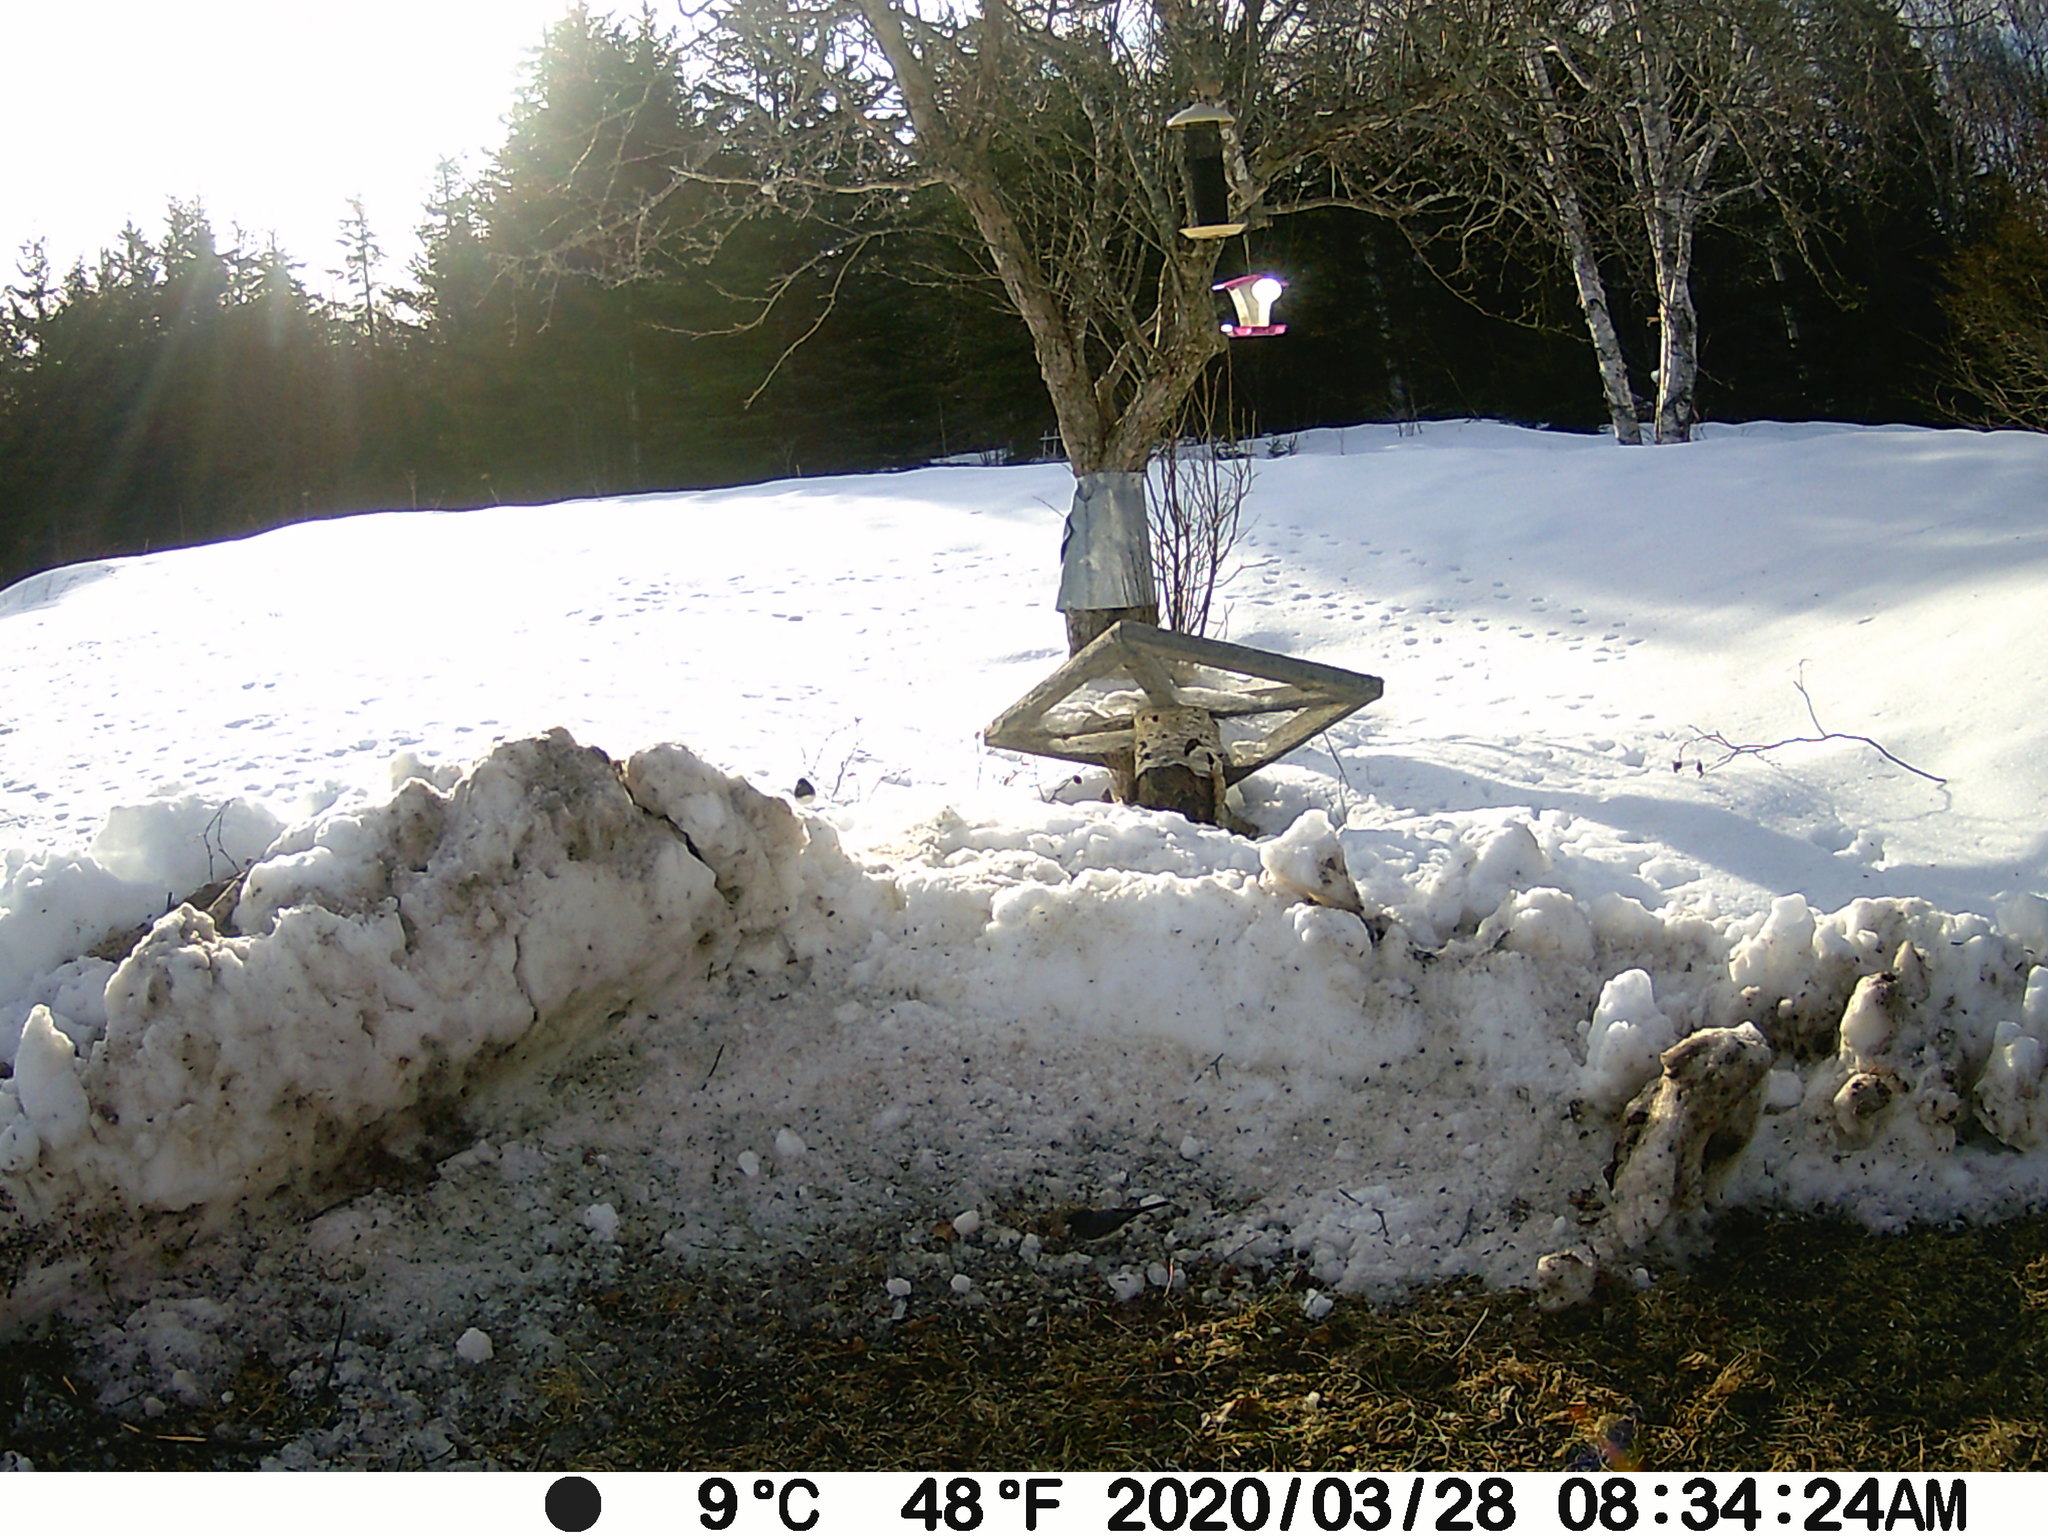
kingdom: Animalia
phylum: Chordata
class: Aves
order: Passeriformes
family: Passerellidae
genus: Junco
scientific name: Junco hyemalis
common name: Dark-eyed junco
